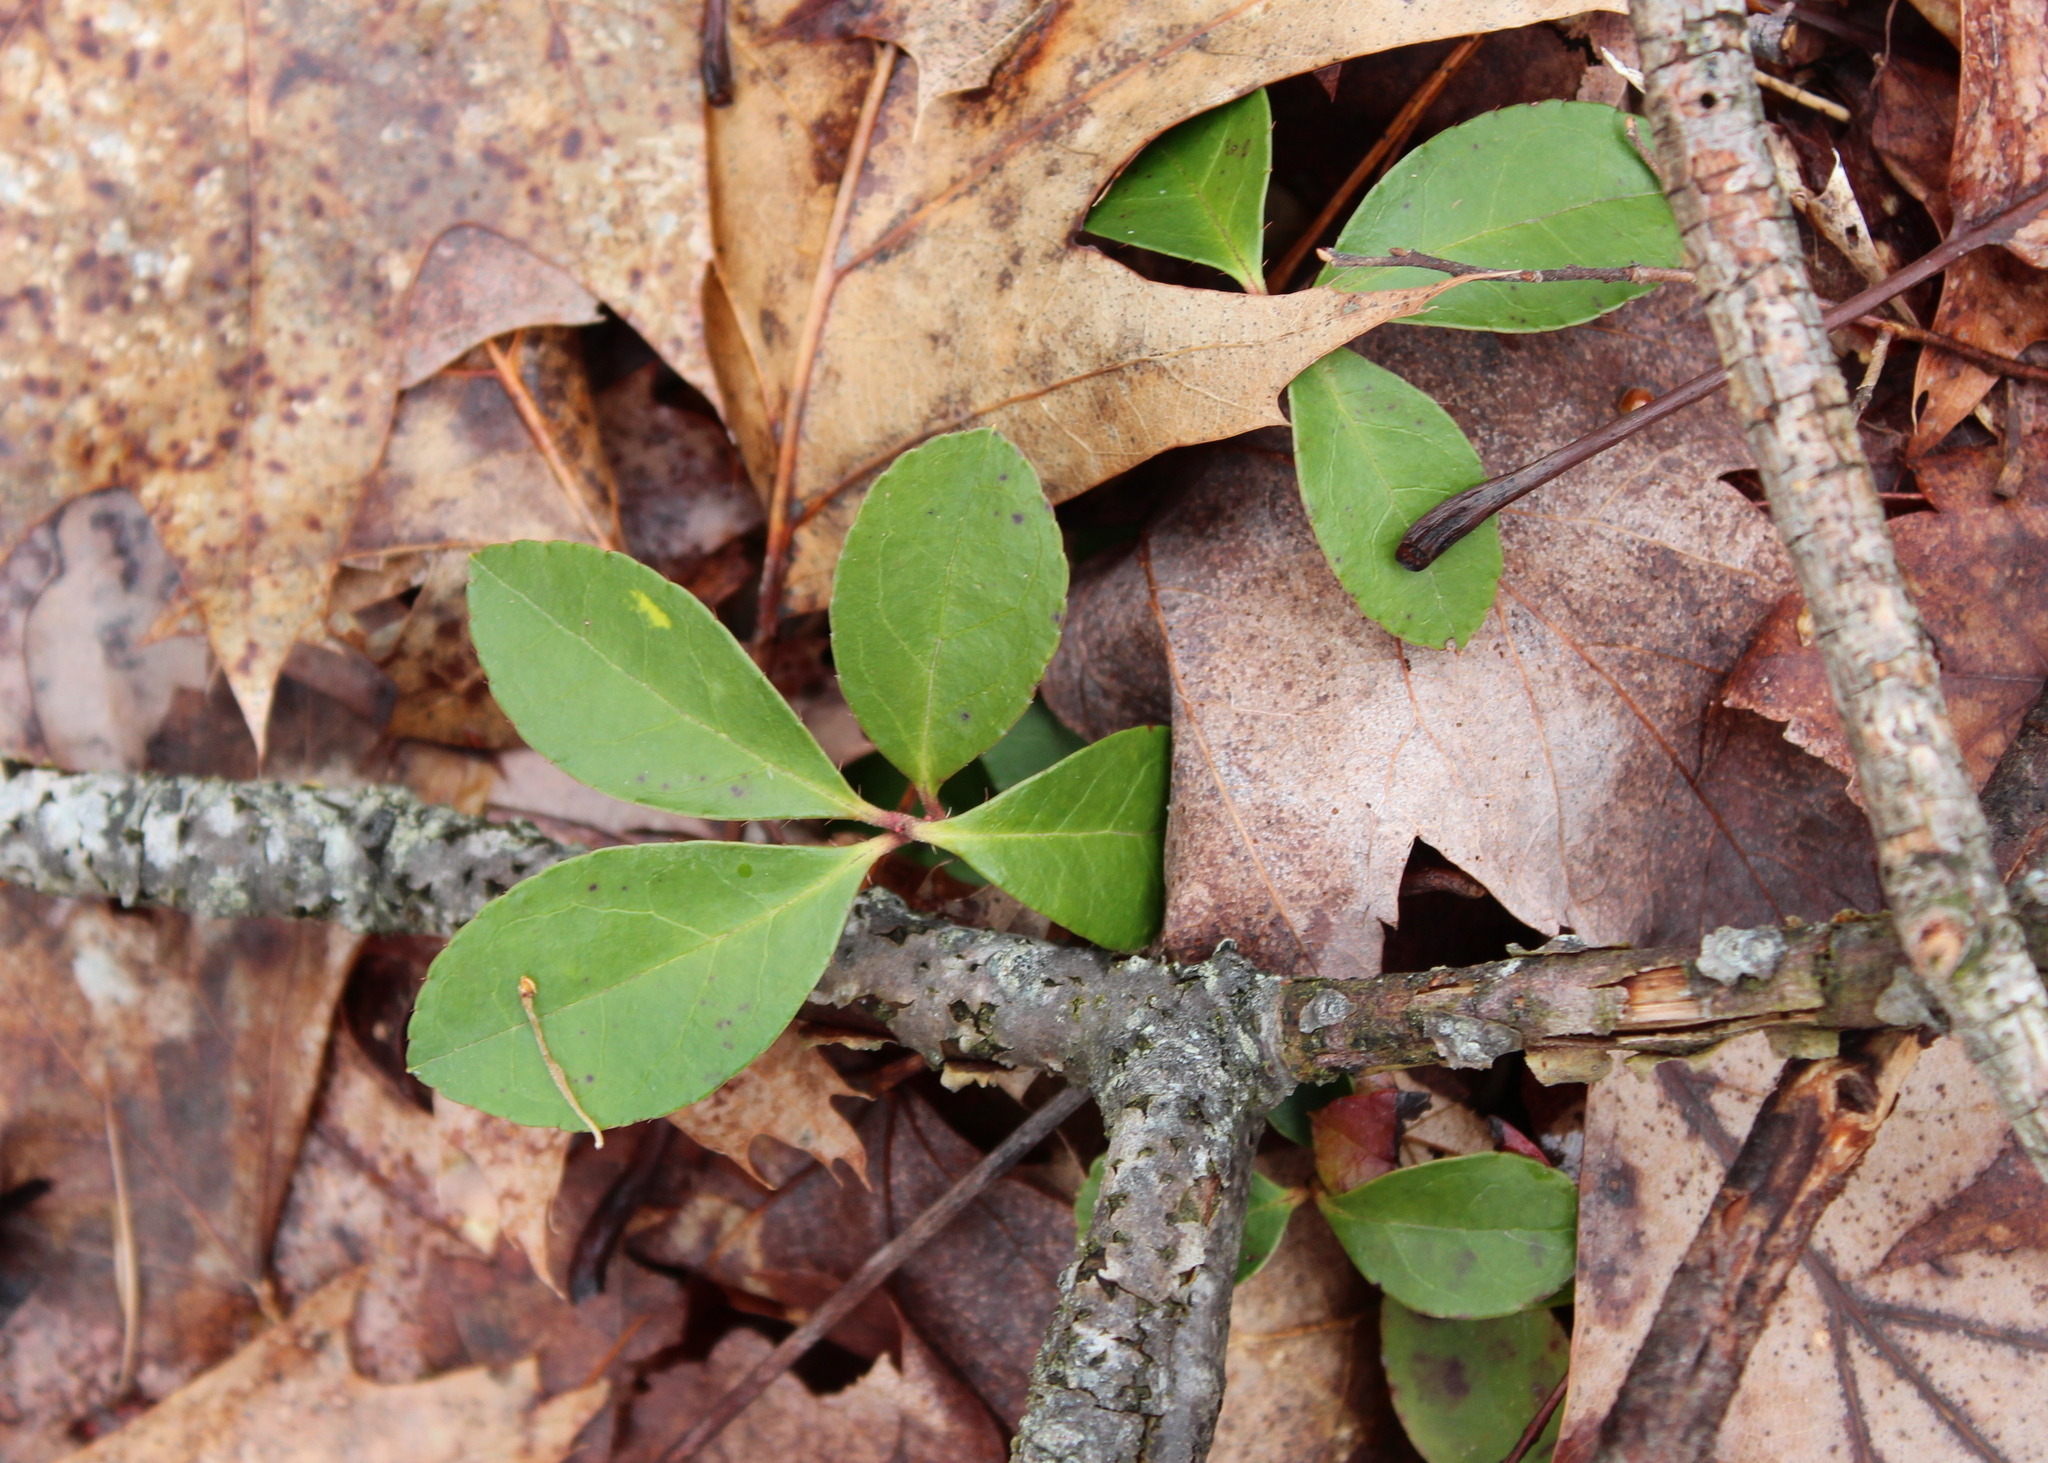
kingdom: Plantae
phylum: Tracheophyta
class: Magnoliopsida
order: Ericales
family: Ericaceae
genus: Gaultheria
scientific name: Gaultheria procumbens
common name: Checkerberry
